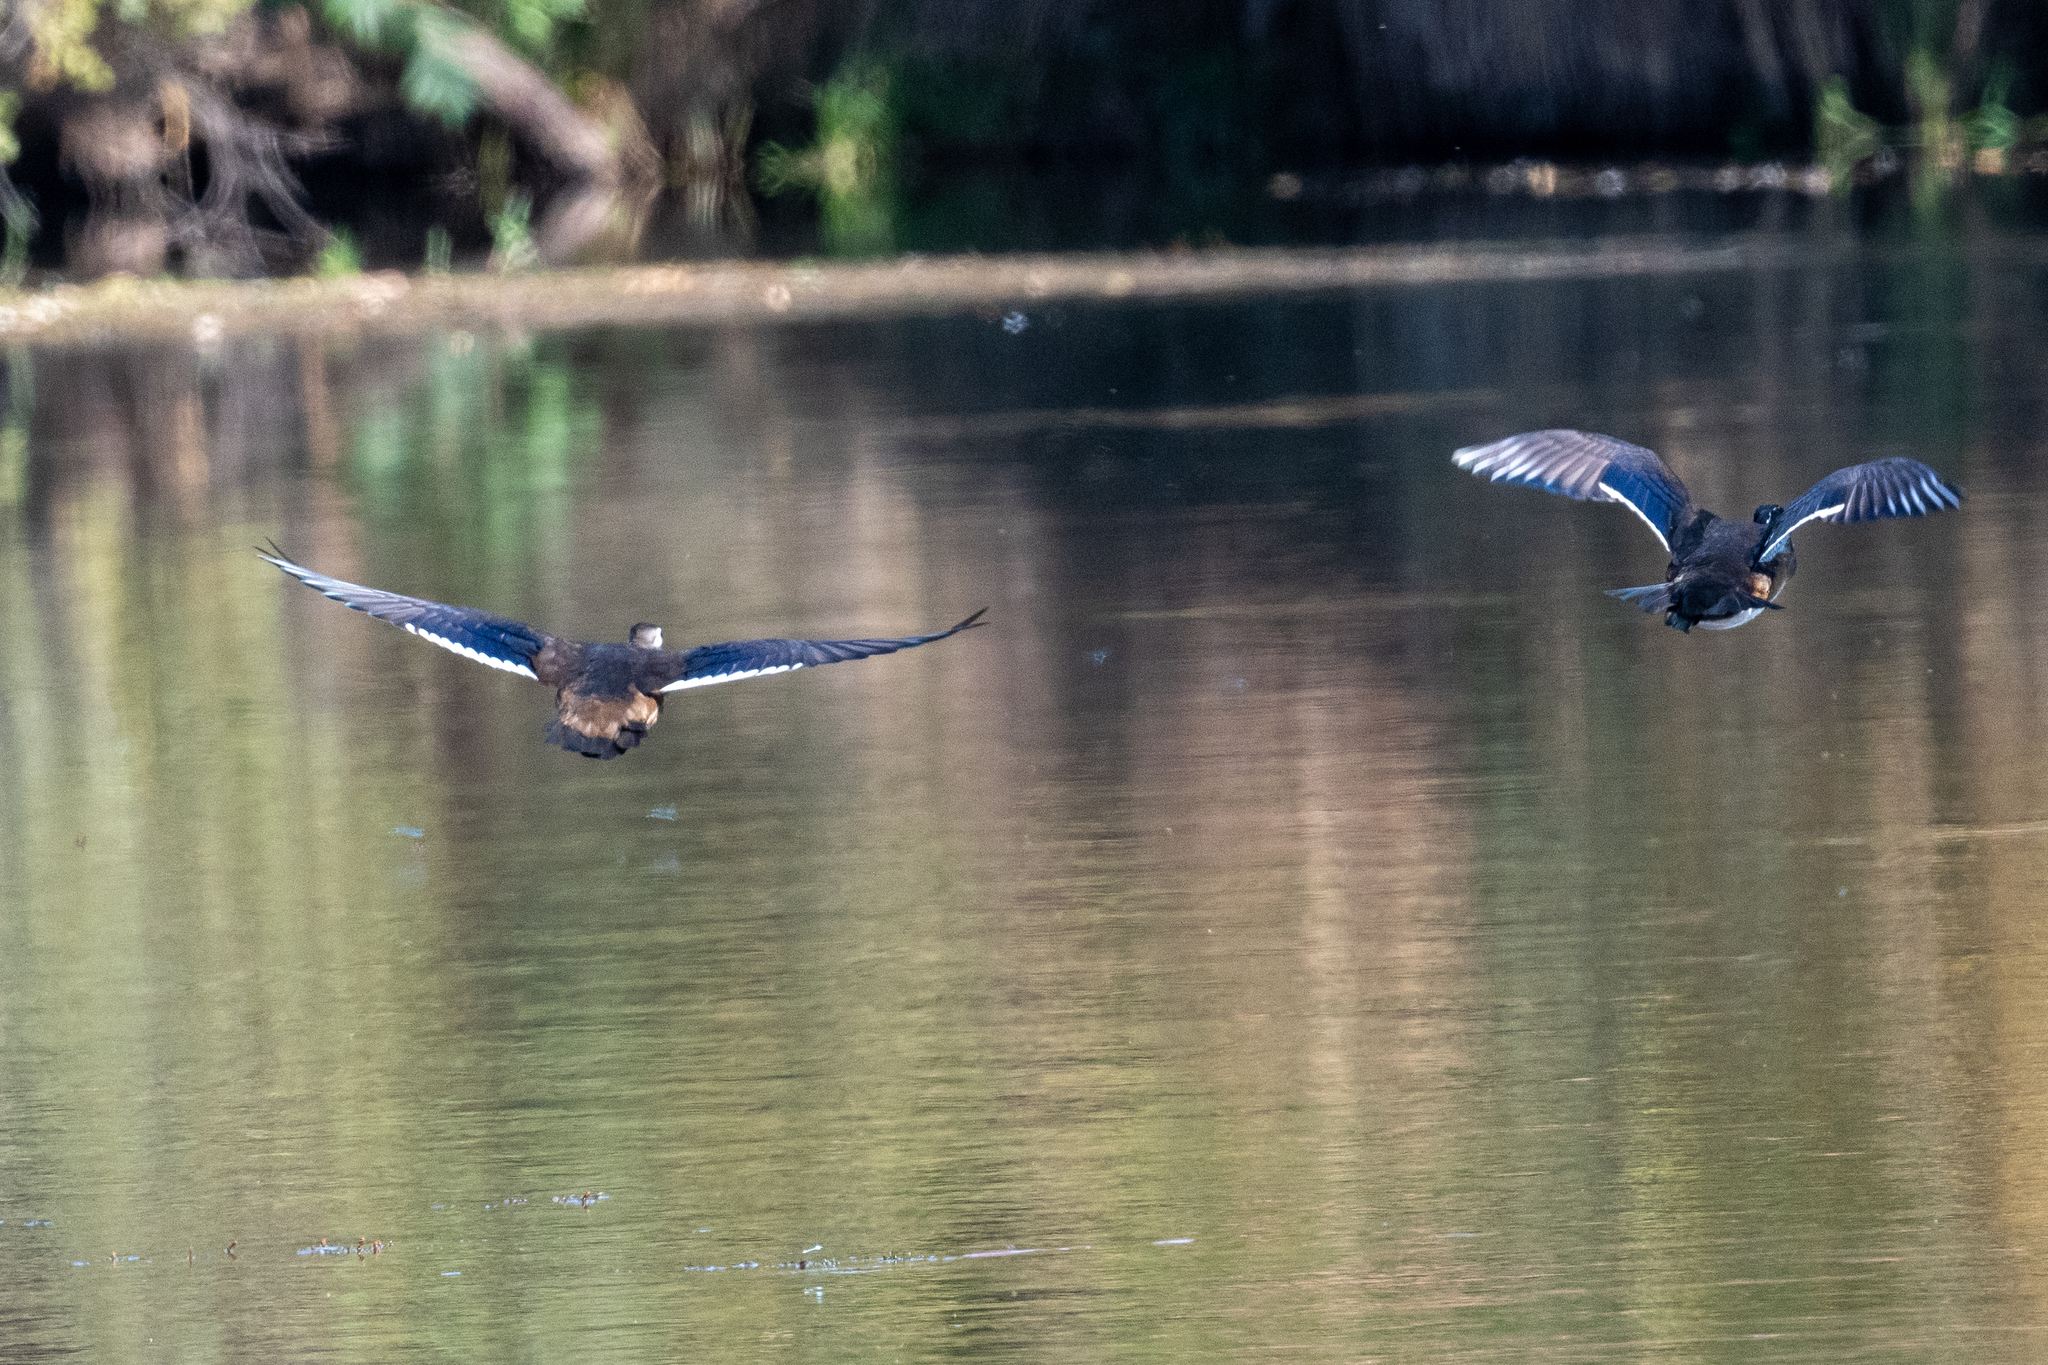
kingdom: Animalia
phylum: Chordata
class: Aves
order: Anseriformes
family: Anatidae
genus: Aix
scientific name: Aix sponsa
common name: Wood duck
